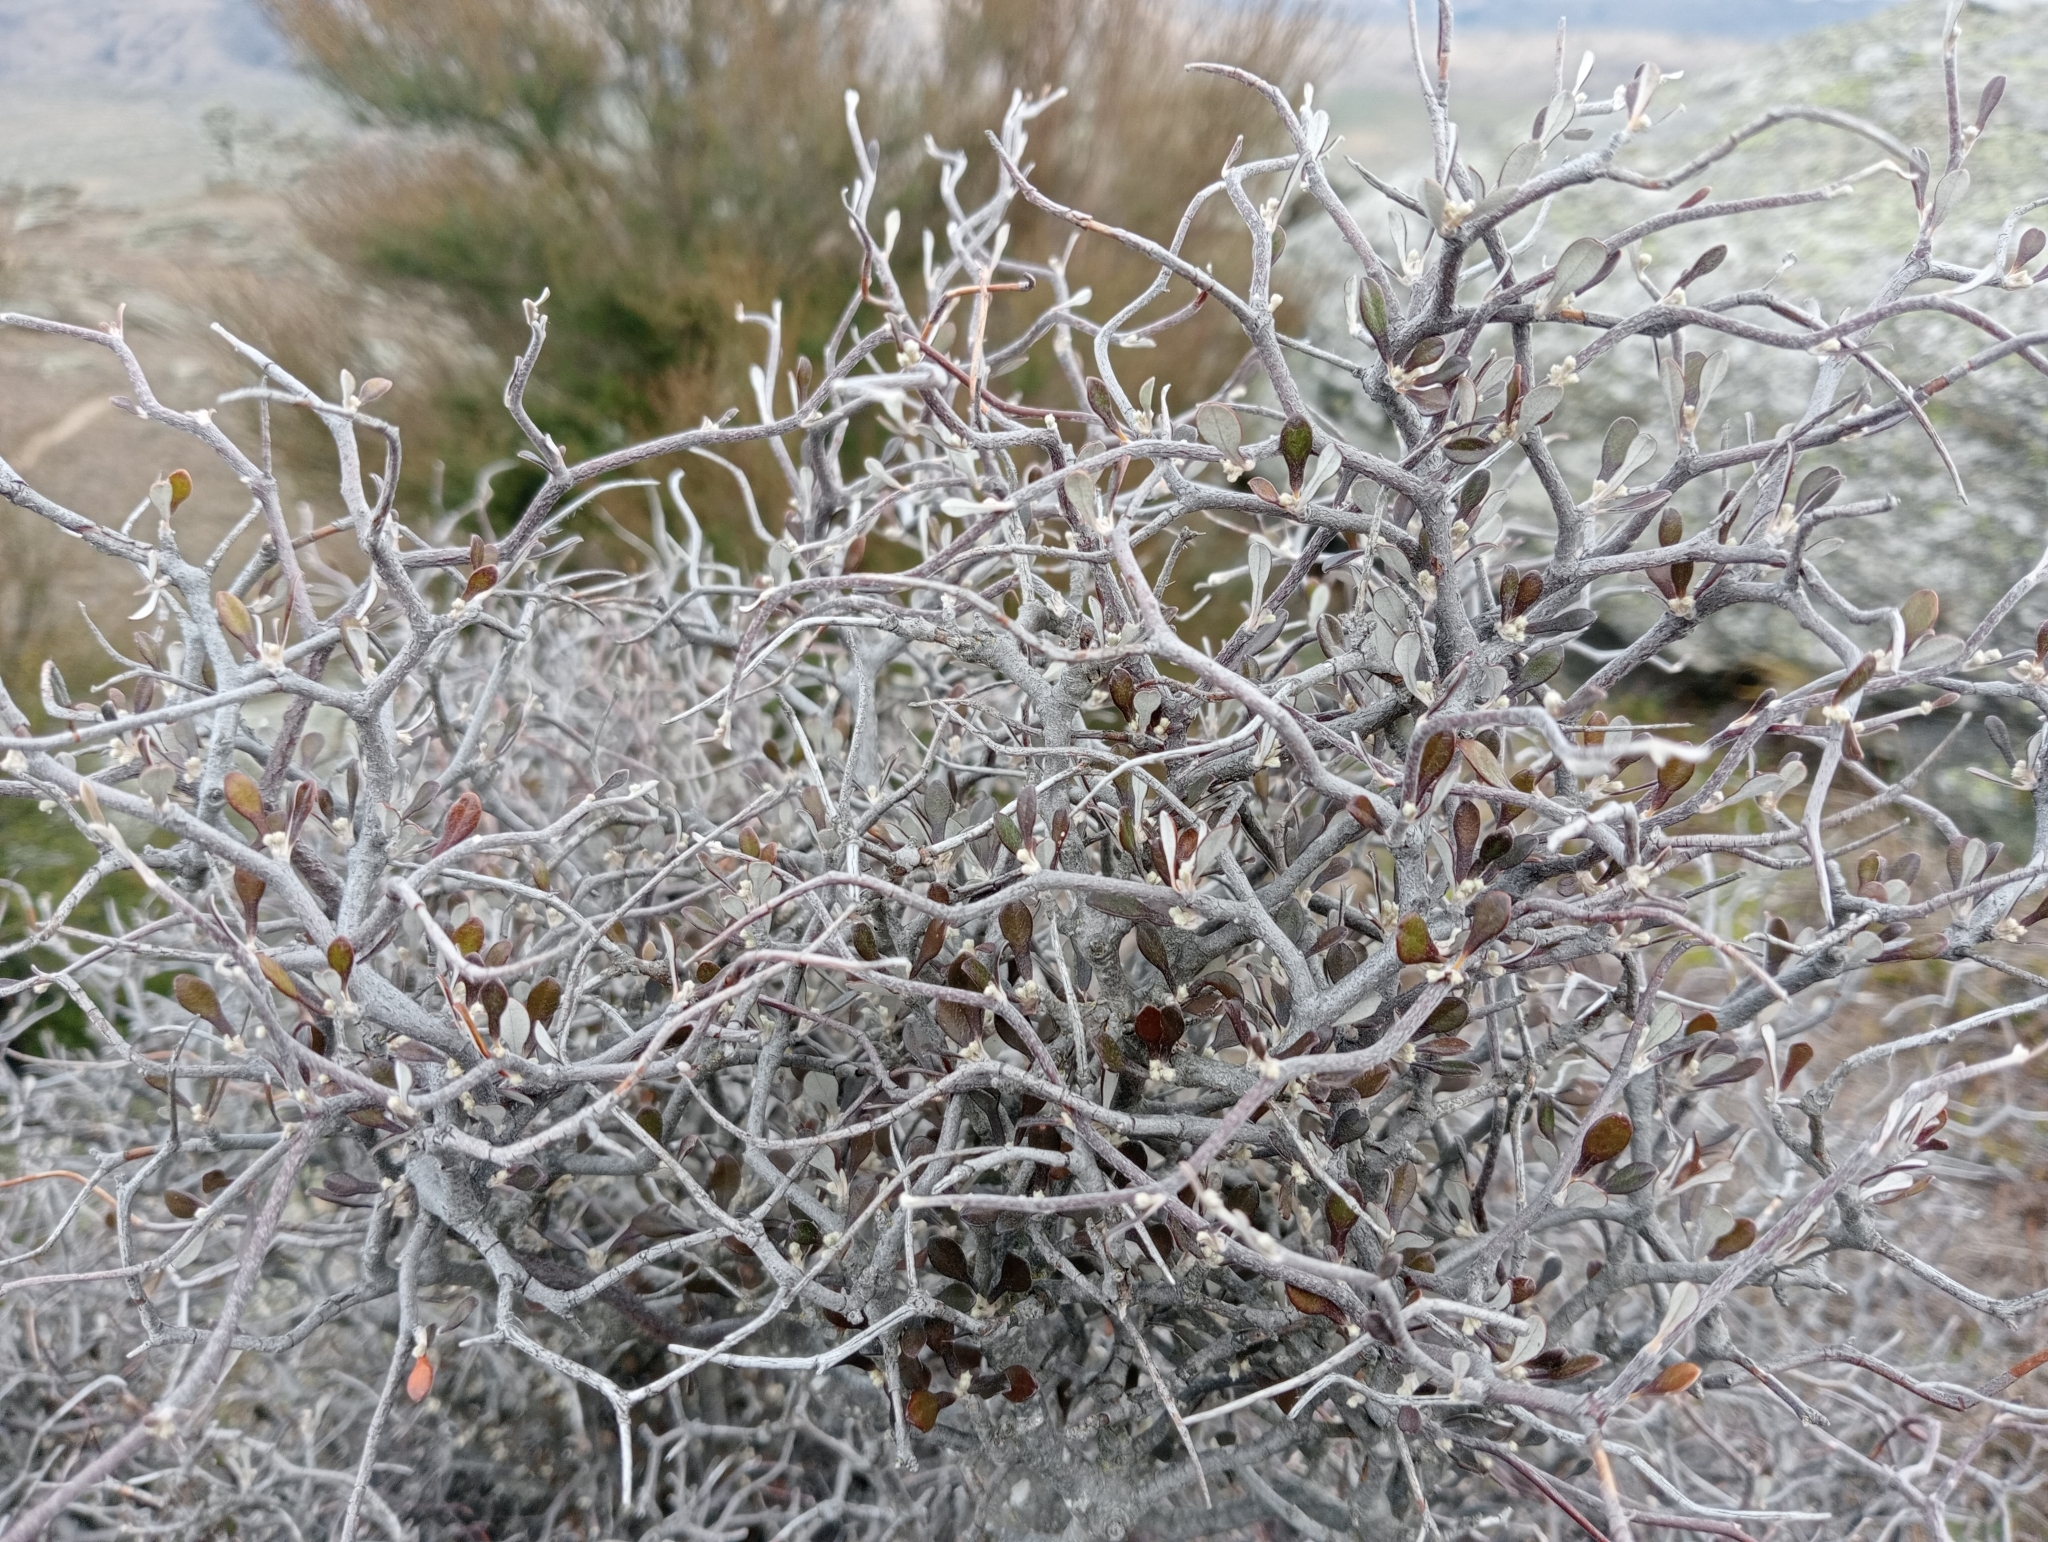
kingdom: Plantae
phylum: Tracheophyta
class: Magnoliopsida
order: Asterales
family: Argophyllaceae
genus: Corokia
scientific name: Corokia cotoneaster
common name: Wire nettingbush
